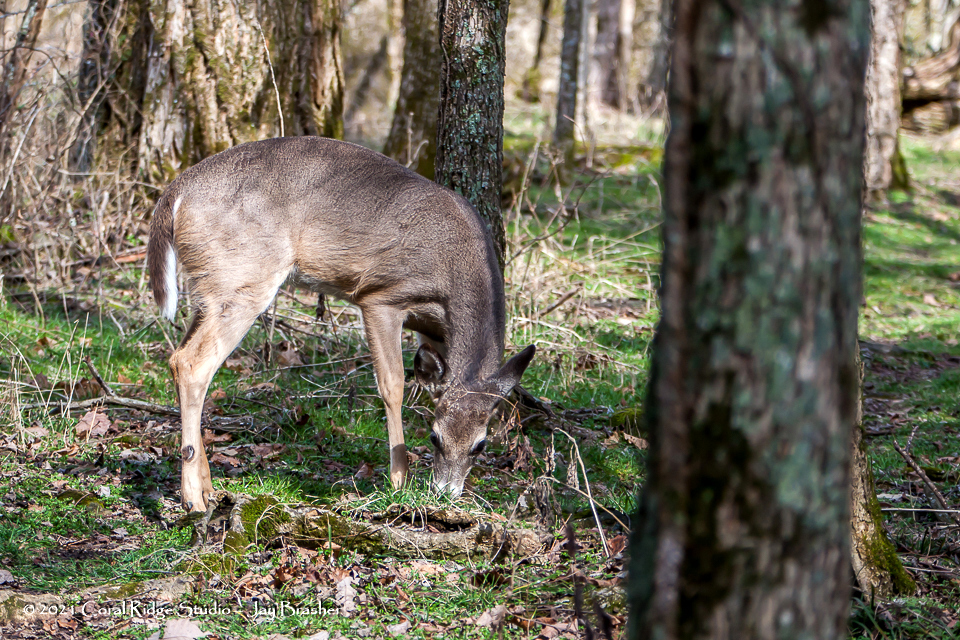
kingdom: Animalia
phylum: Chordata
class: Mammalia
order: Artiodactyla
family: Cervidae
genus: Odocoileus
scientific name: Odocoileus virginianus
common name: White-tailed deer
